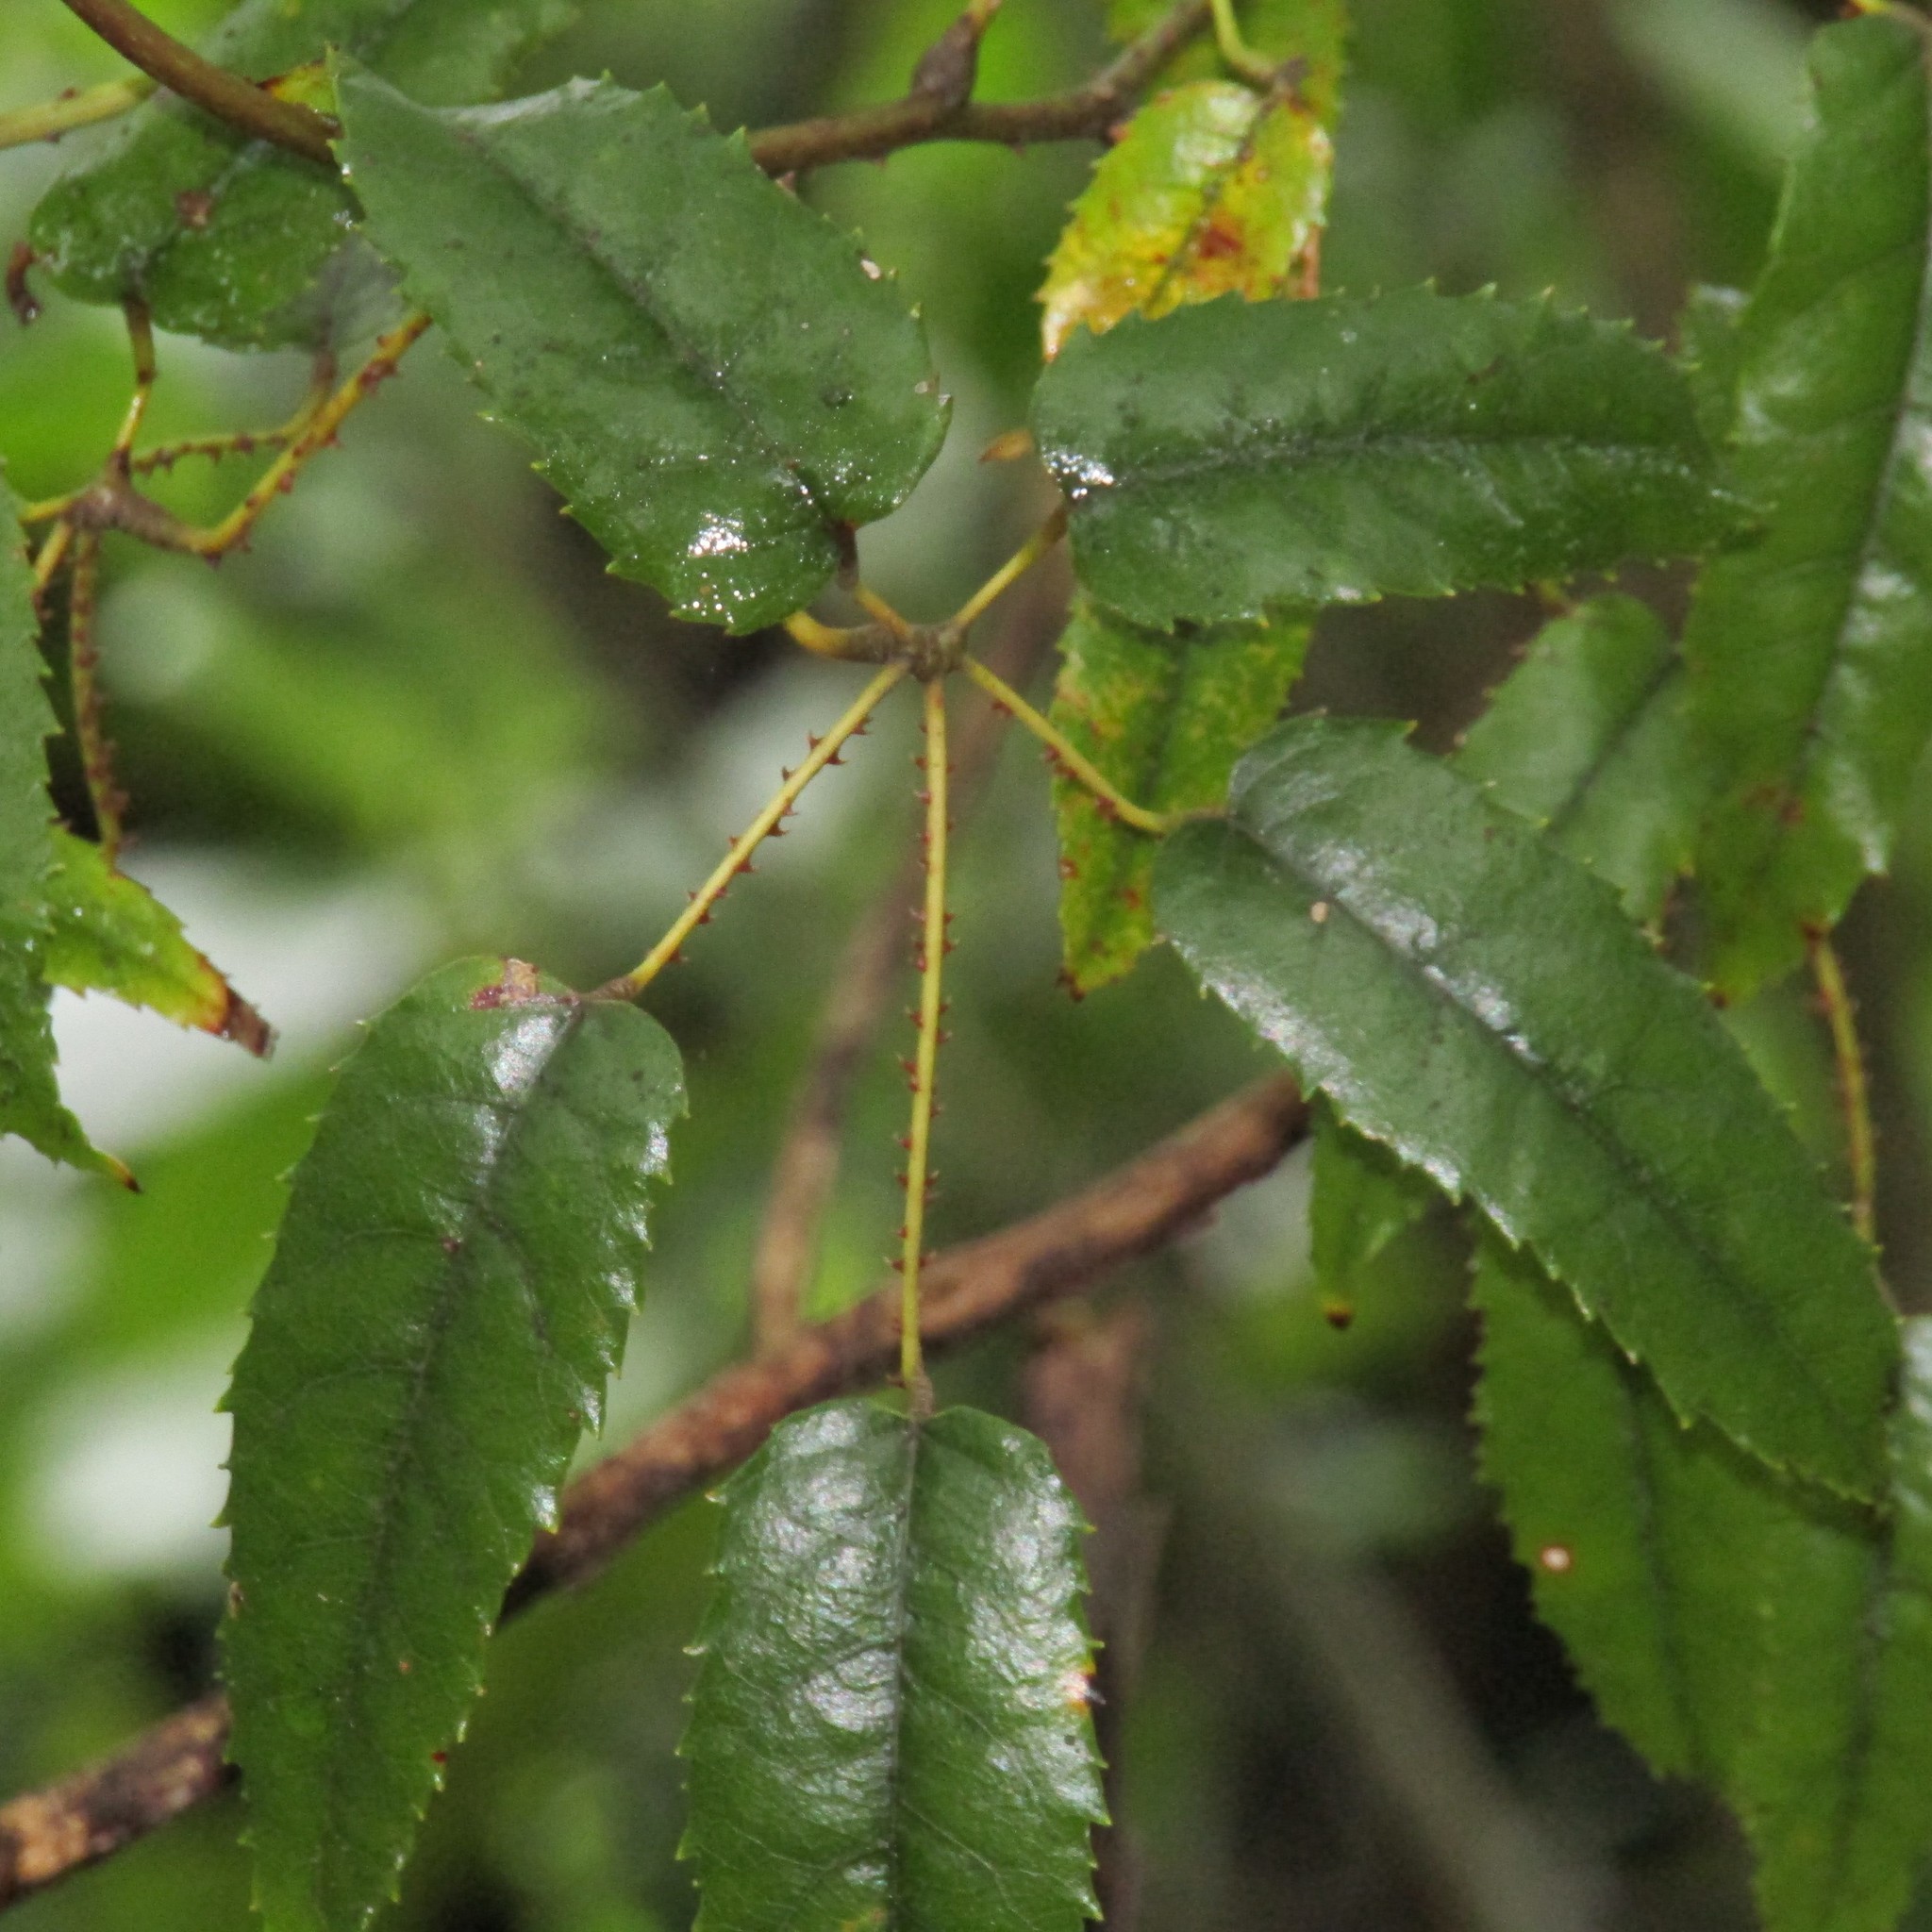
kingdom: Plantae
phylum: Tracheophyta
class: Magnoliopsida
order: Rosales
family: Rosaceae
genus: Rubus
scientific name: Rubus cissoides
